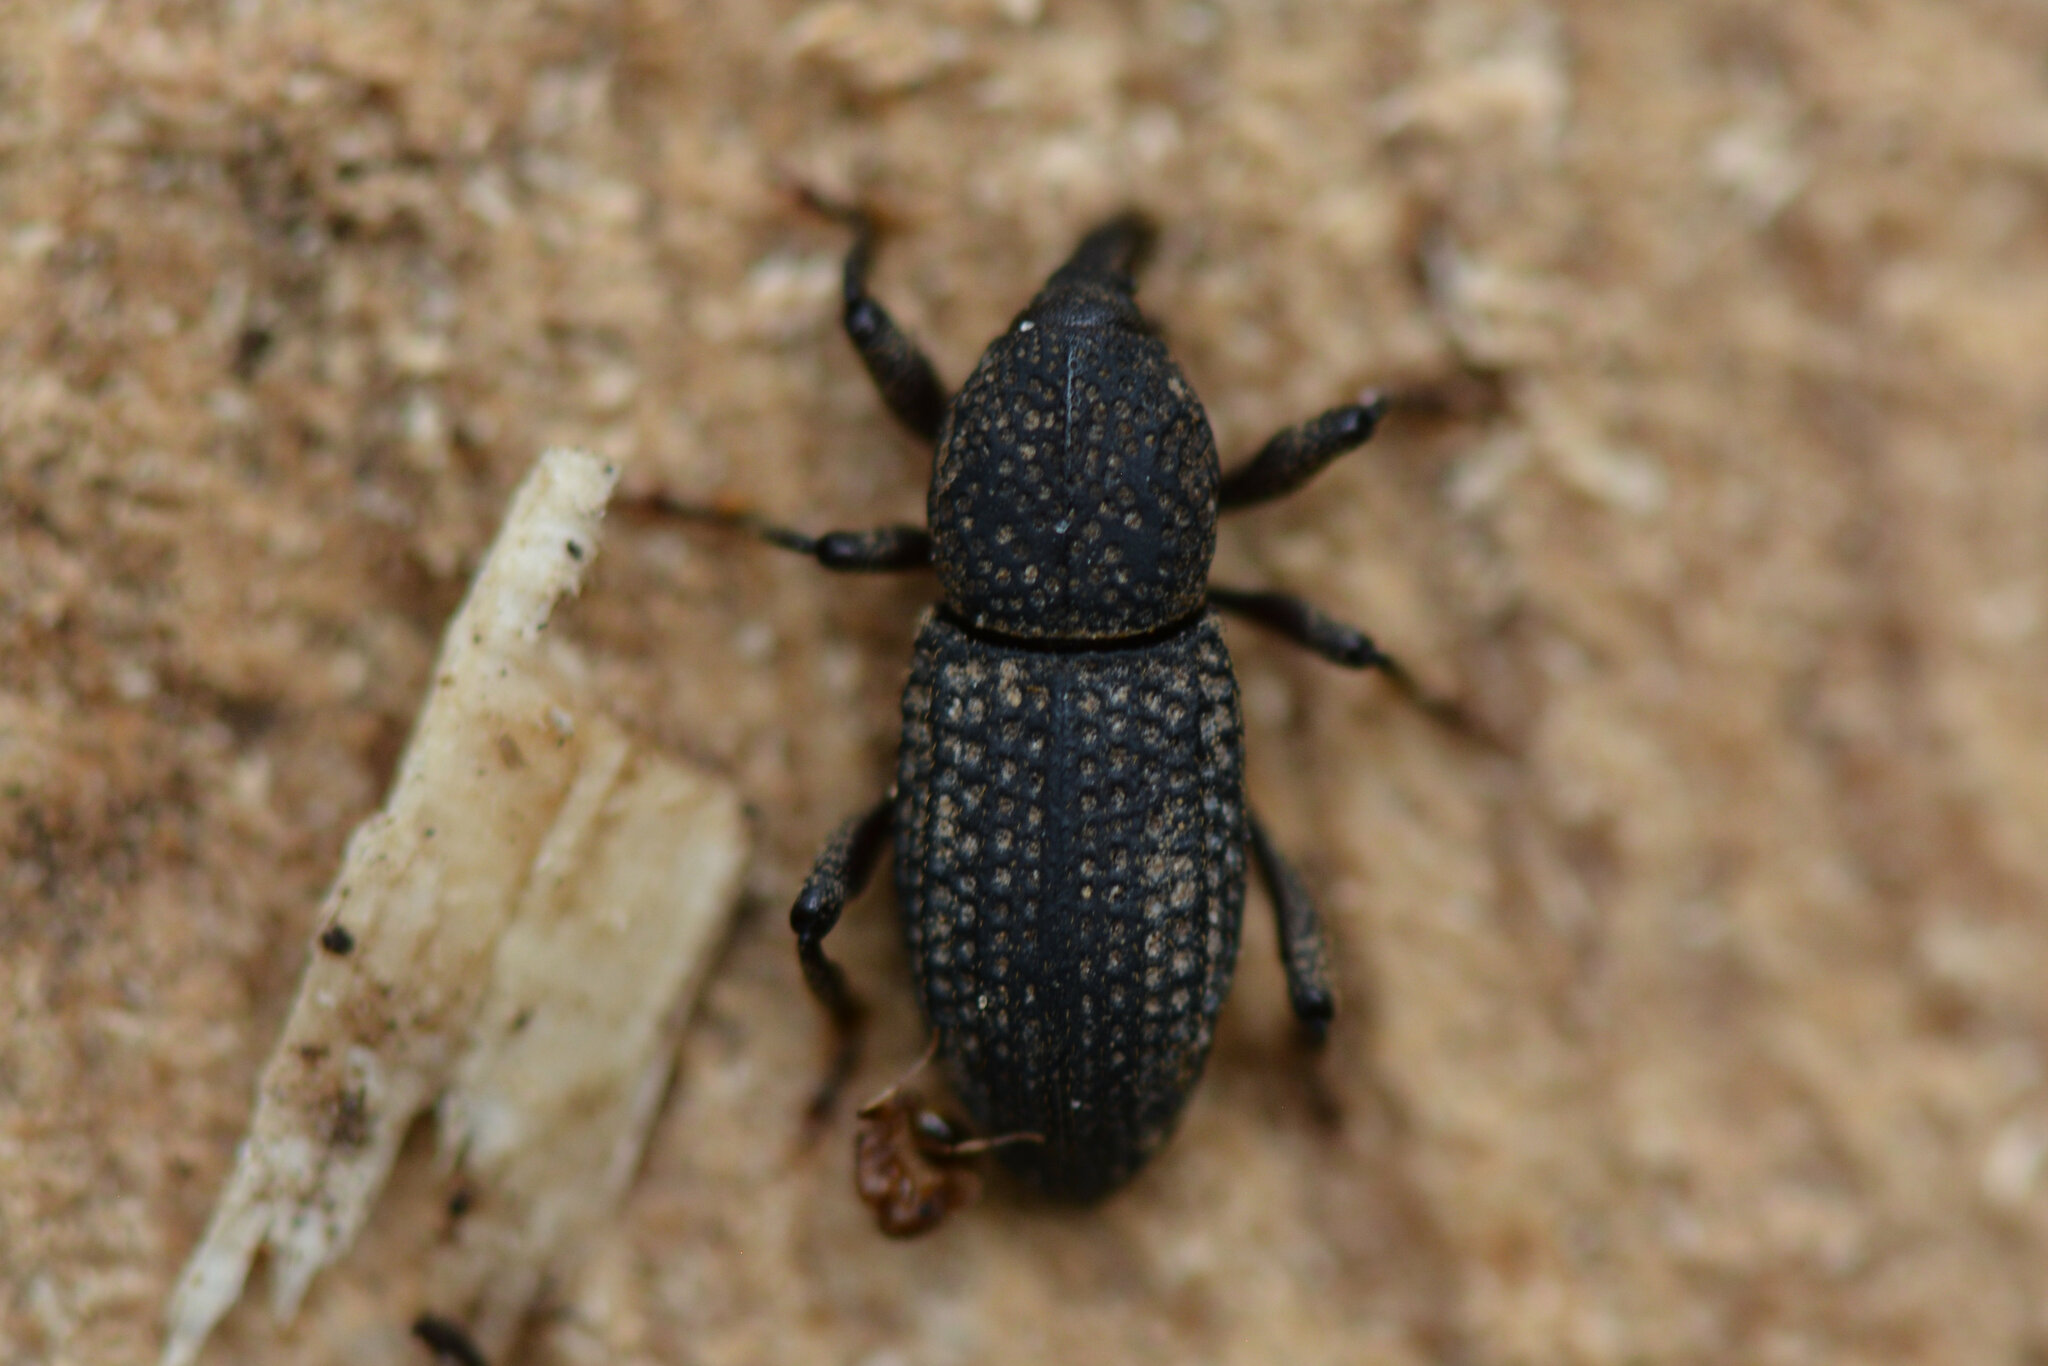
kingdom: Animalia
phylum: Arthropoda
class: Insecta
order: Coleoptera
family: Curculionidae
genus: Mitoplinthus
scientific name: Mitoplinthus caliginosus
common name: Hop root weevil
